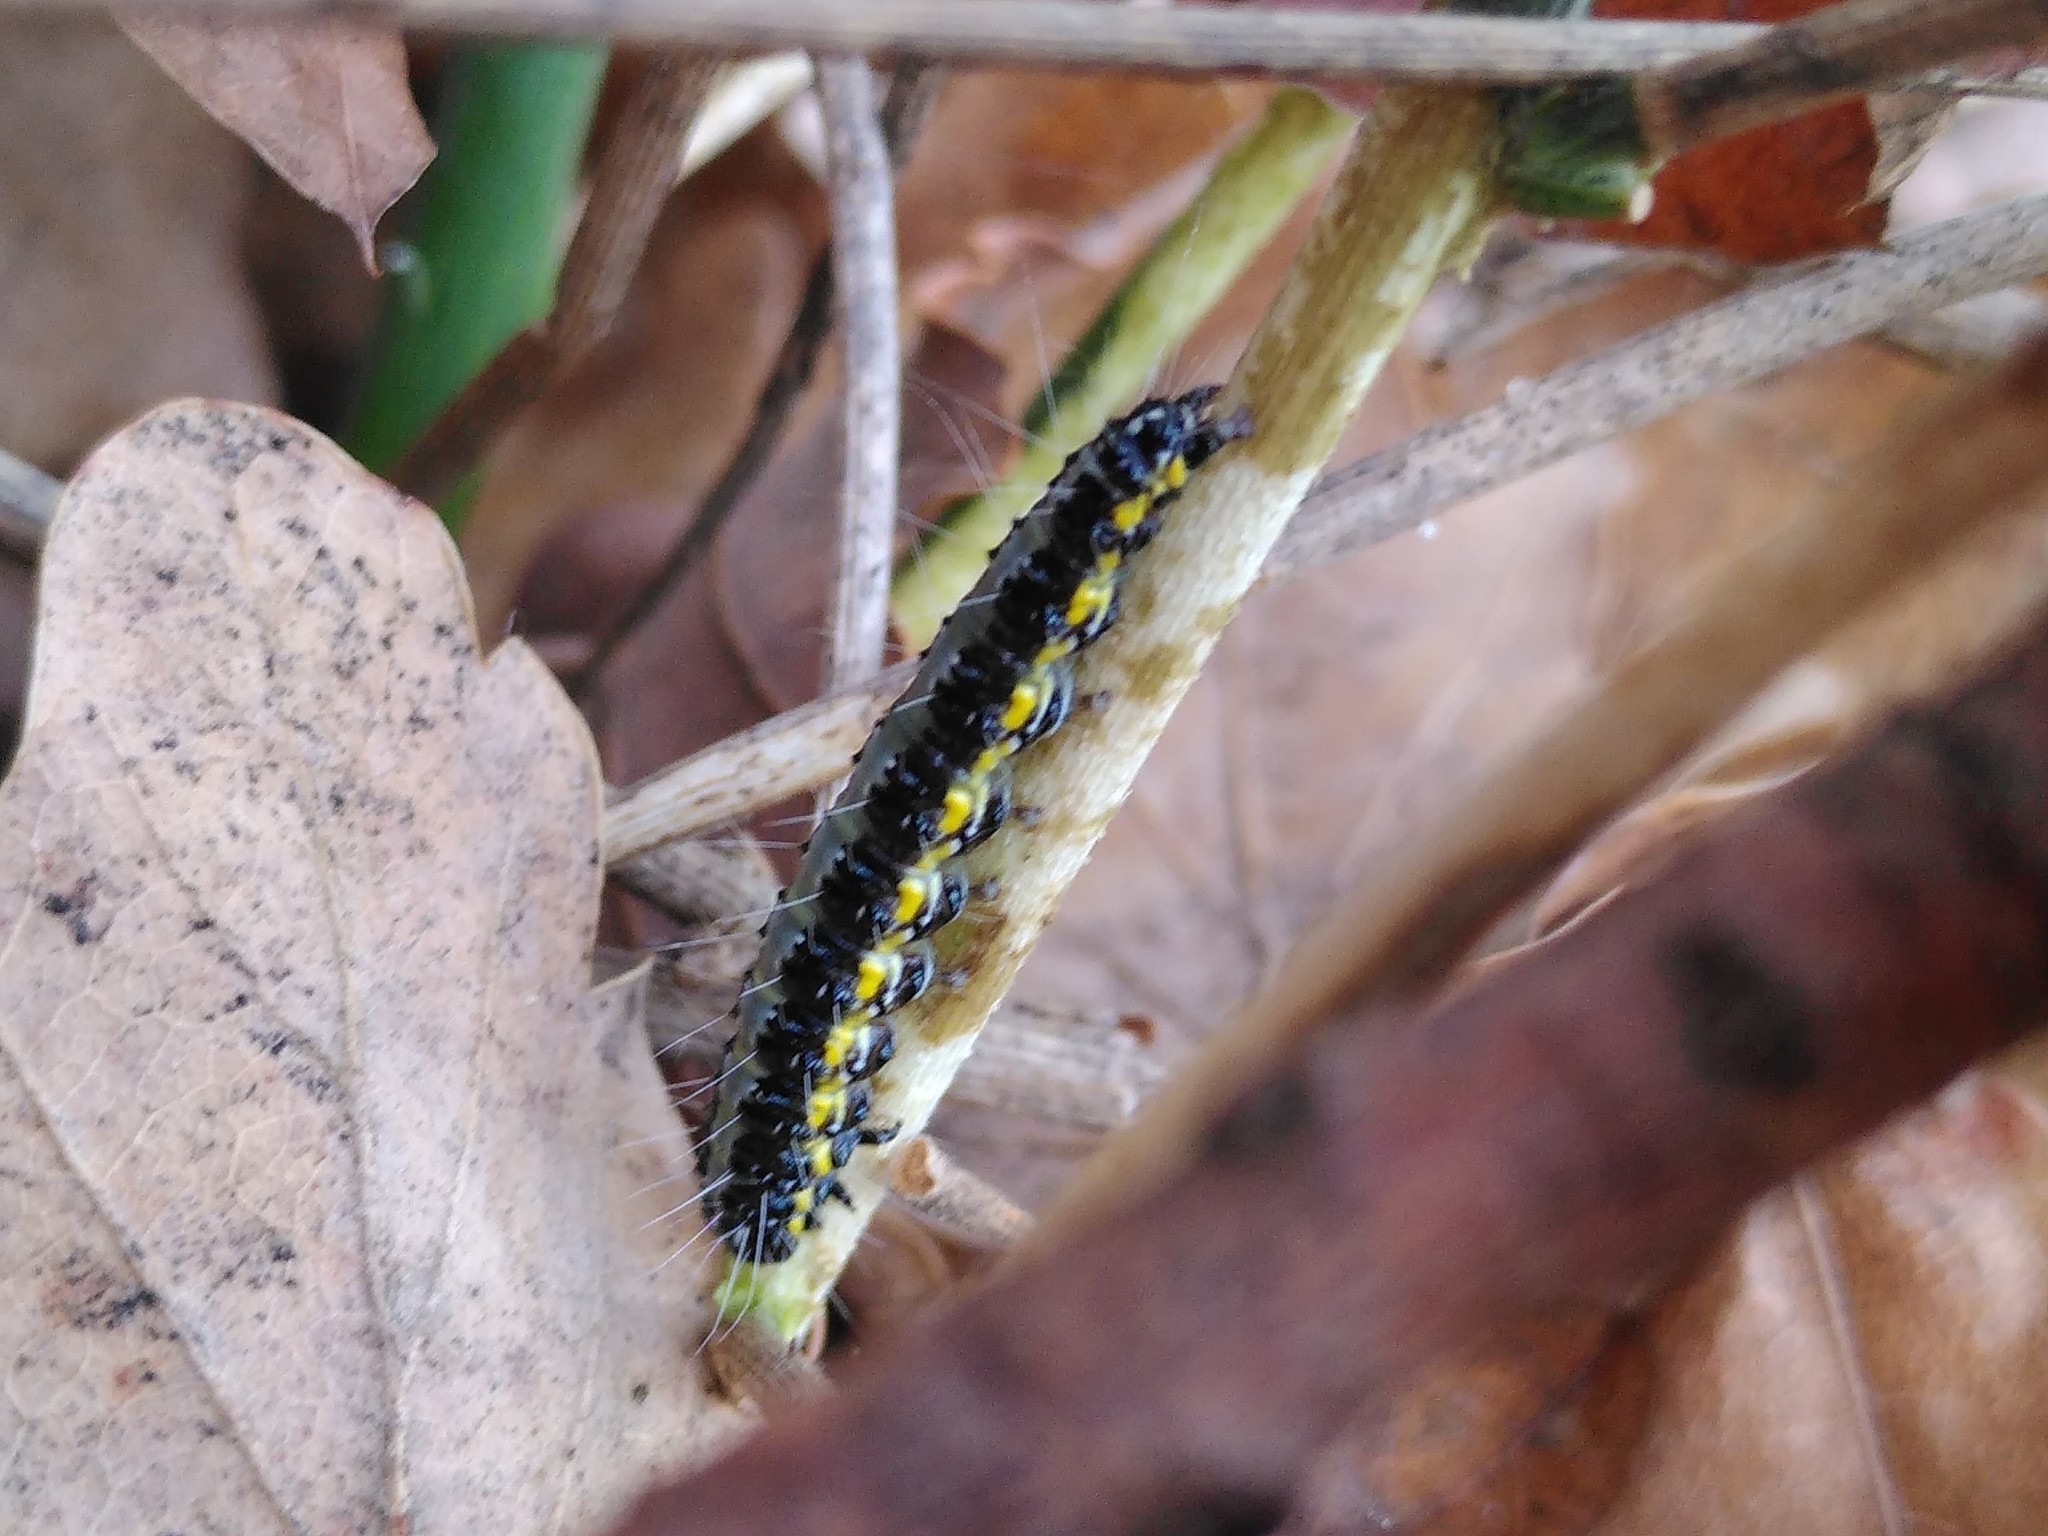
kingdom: Animalia
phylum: Arthropoda
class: Insecta
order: Lepidoptera
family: Crambidae
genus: Uresiphita
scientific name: Uresiphita gilvata
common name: Yellow-underwing pearl
